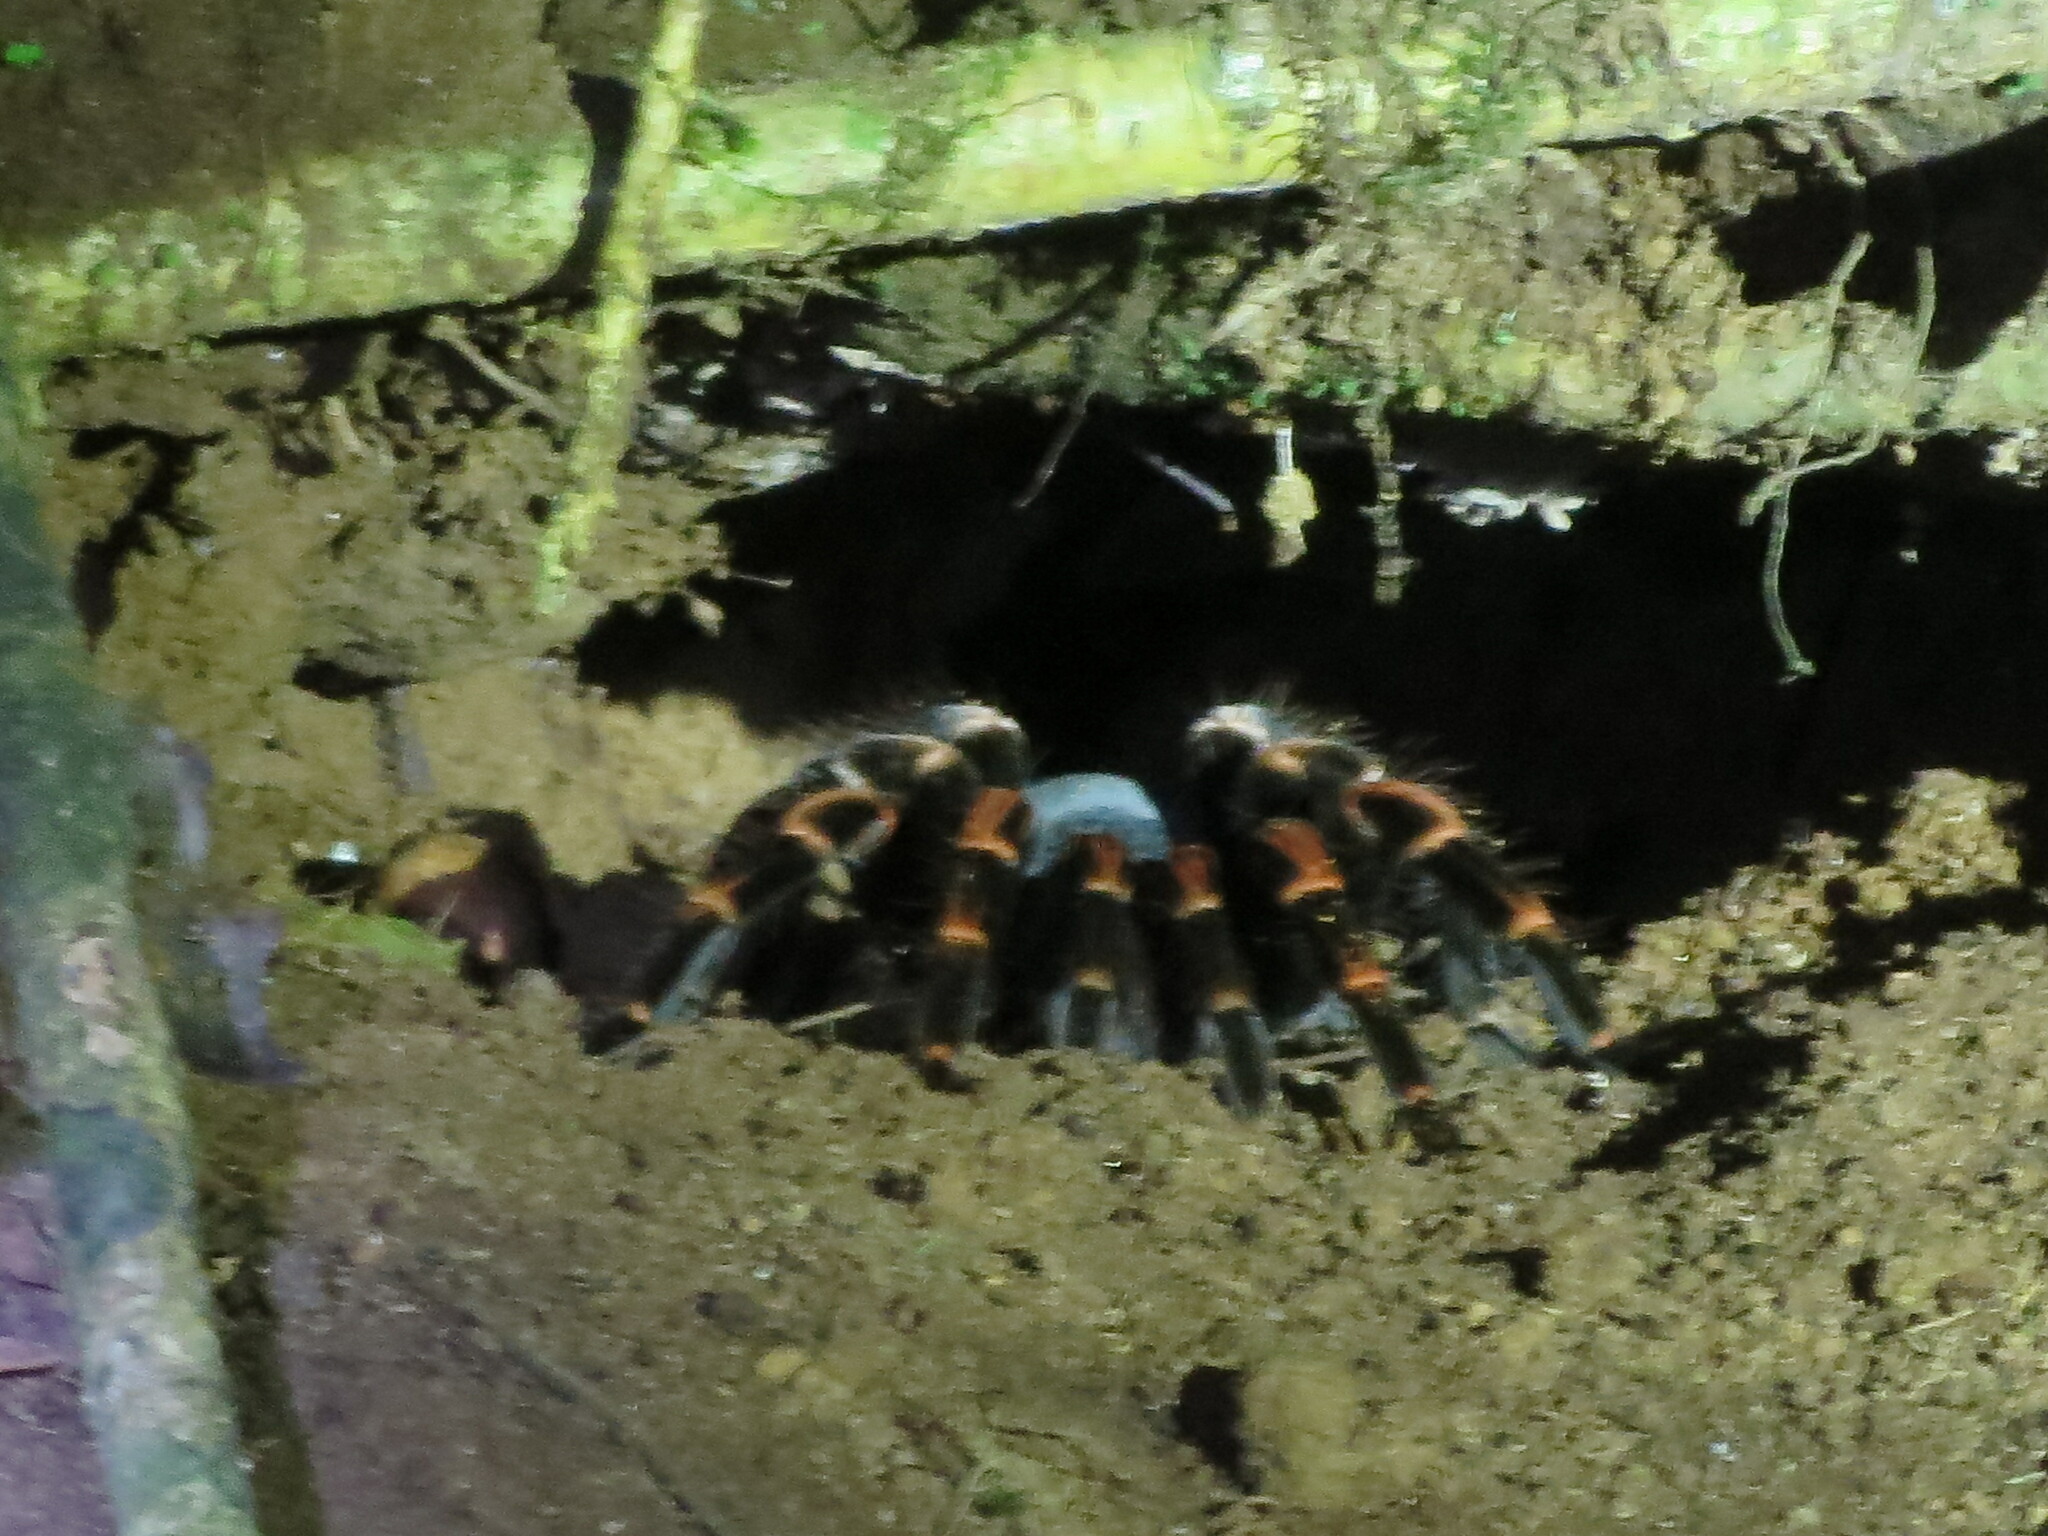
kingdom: Animalia
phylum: Arthropoda
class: Arachnida
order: Araneae
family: Theraphosidae
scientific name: Theraphosidae
